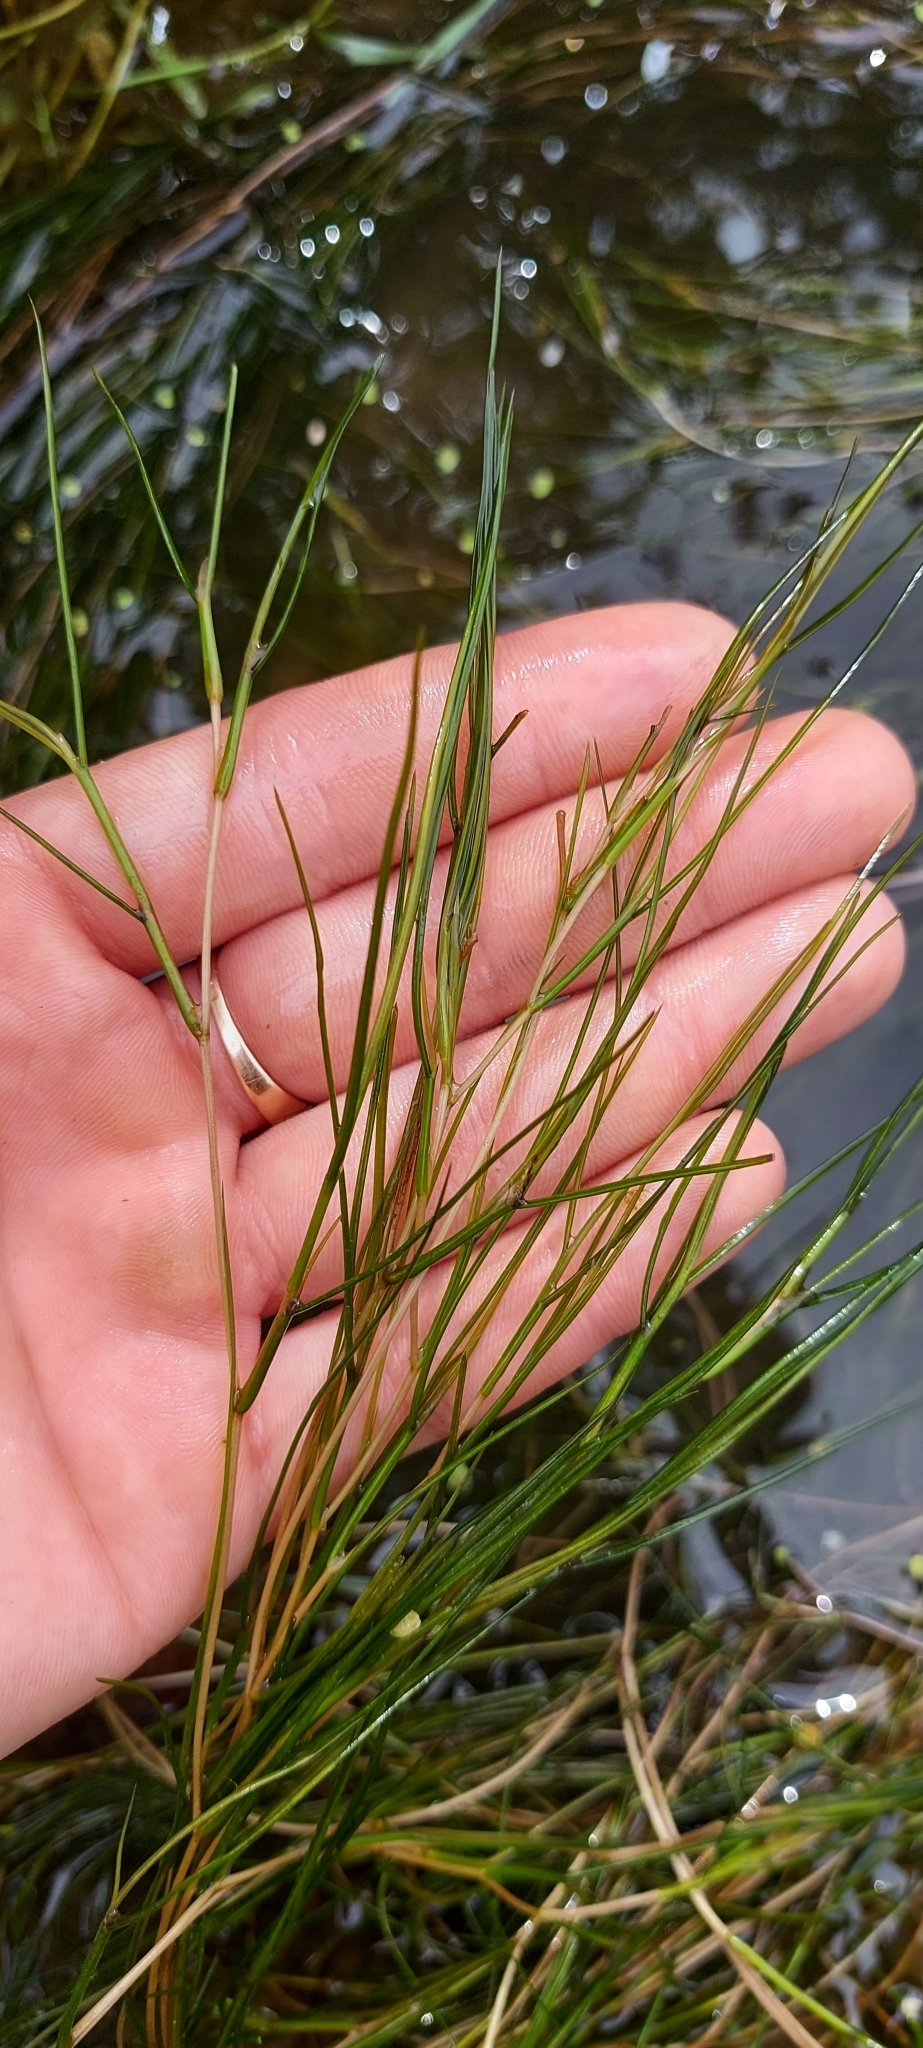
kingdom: Plantae
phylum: Tracheophyta
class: Liliopsida
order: Alismatales
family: Potamogetonaceae
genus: Stuckenia
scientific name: Stuckenia pectinata
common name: Sago pondweed
